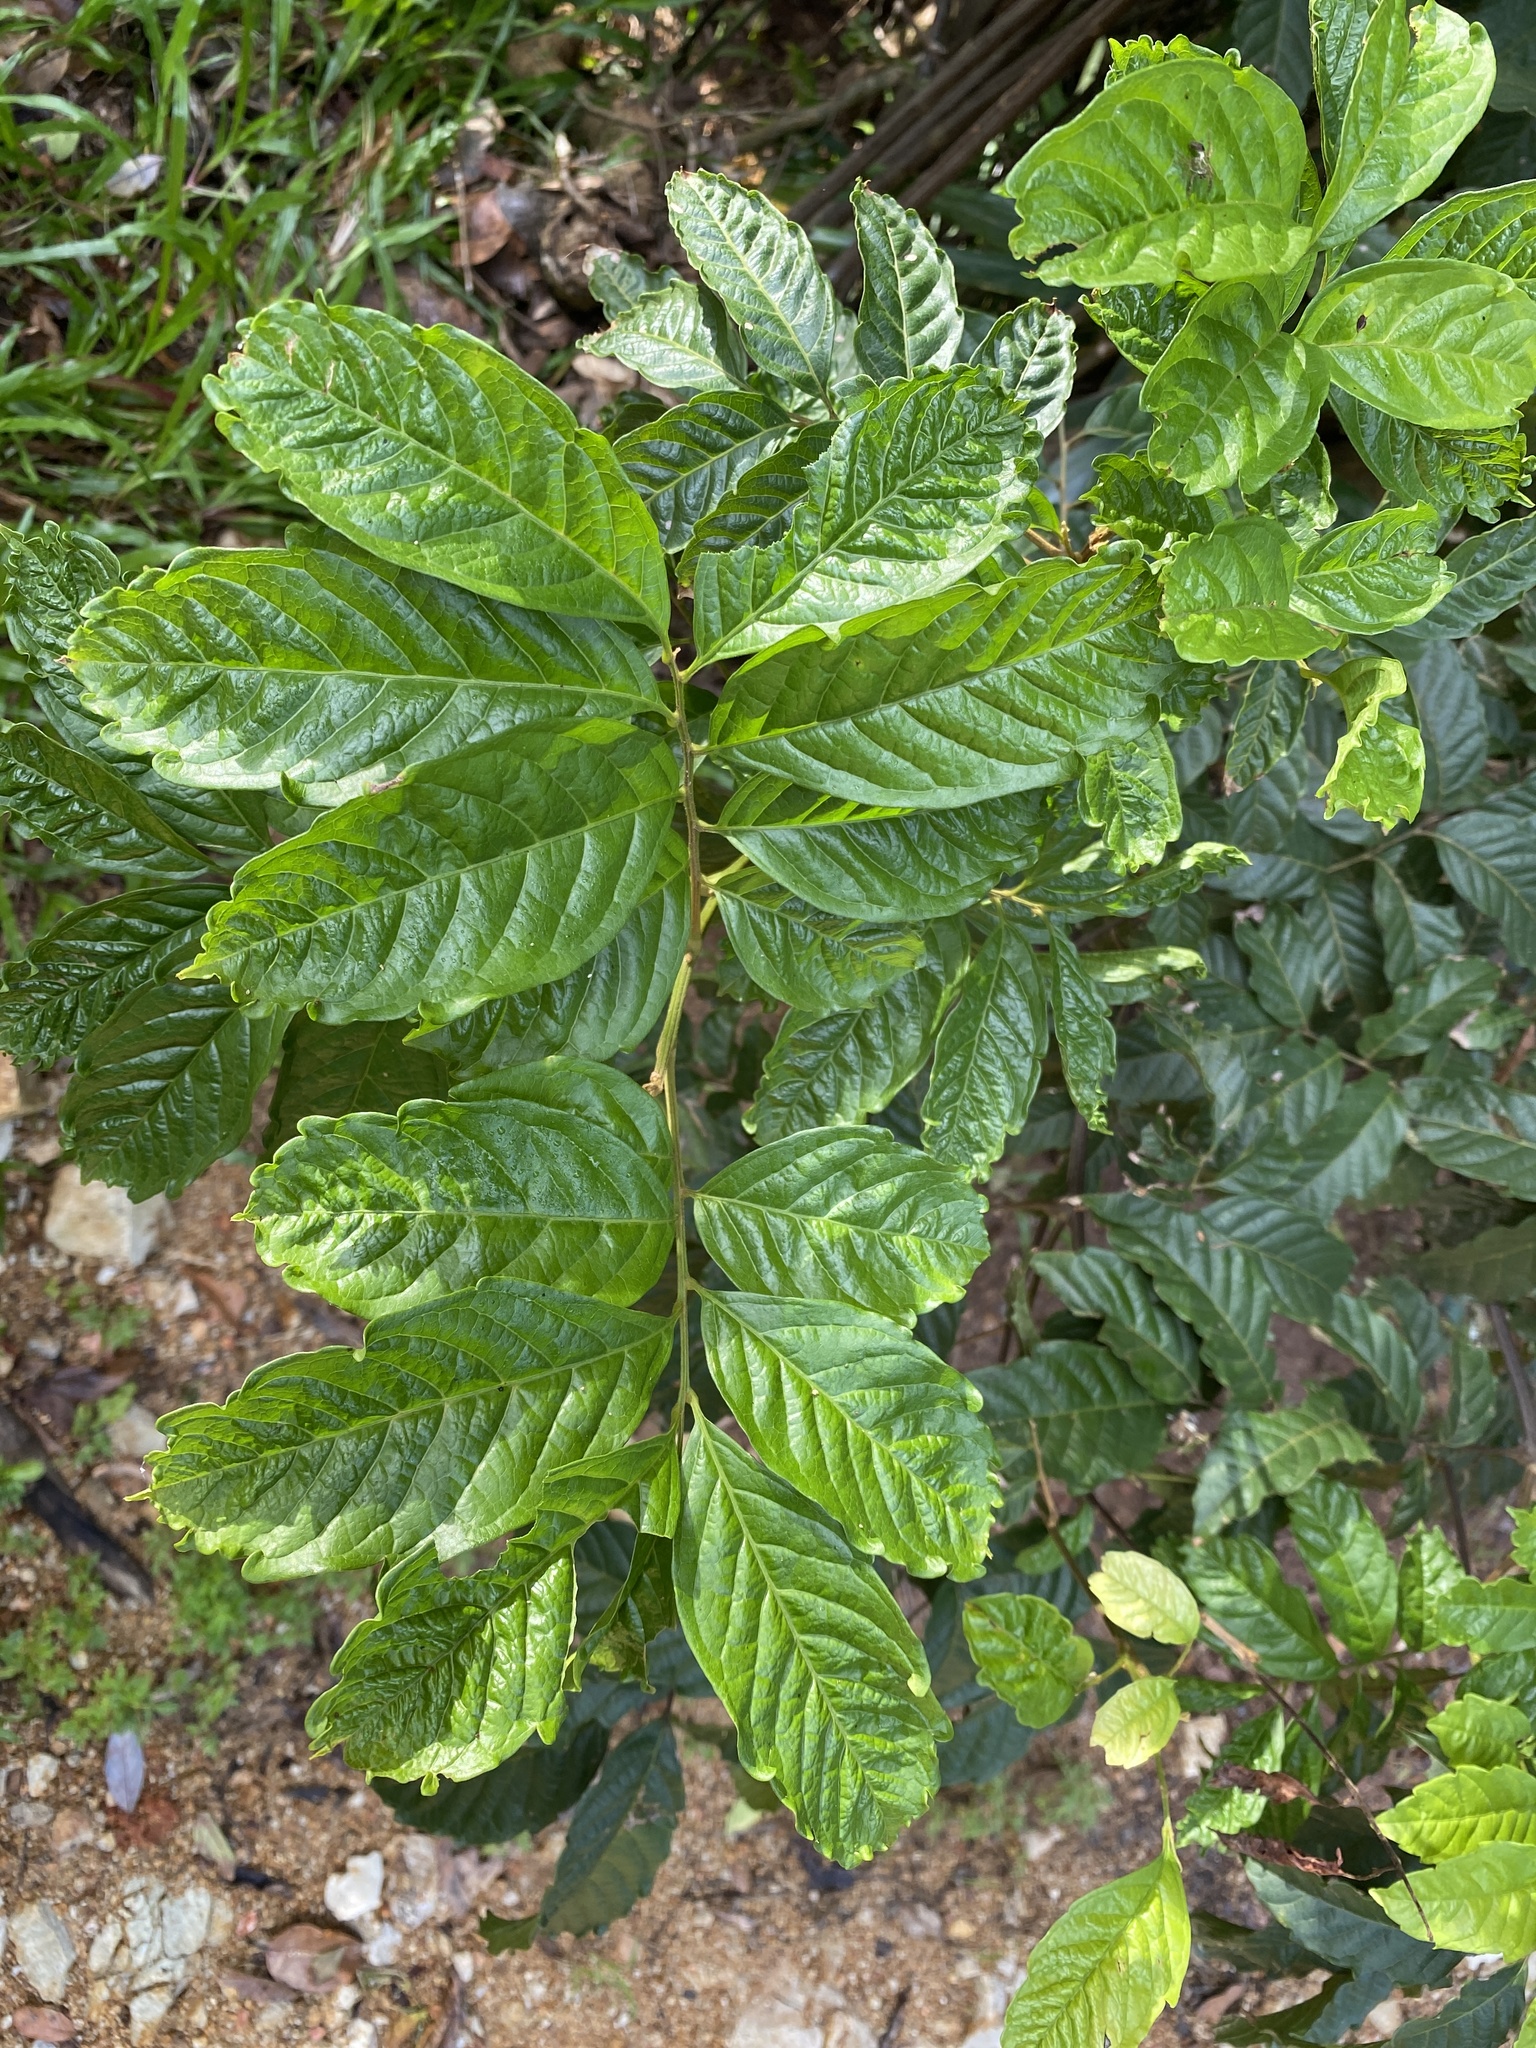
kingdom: Plantae
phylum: Tracheophyta
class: Magnoliopsida
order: Sapindales
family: Sapindaceae
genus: Toechima
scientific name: Toechima daemelianum
